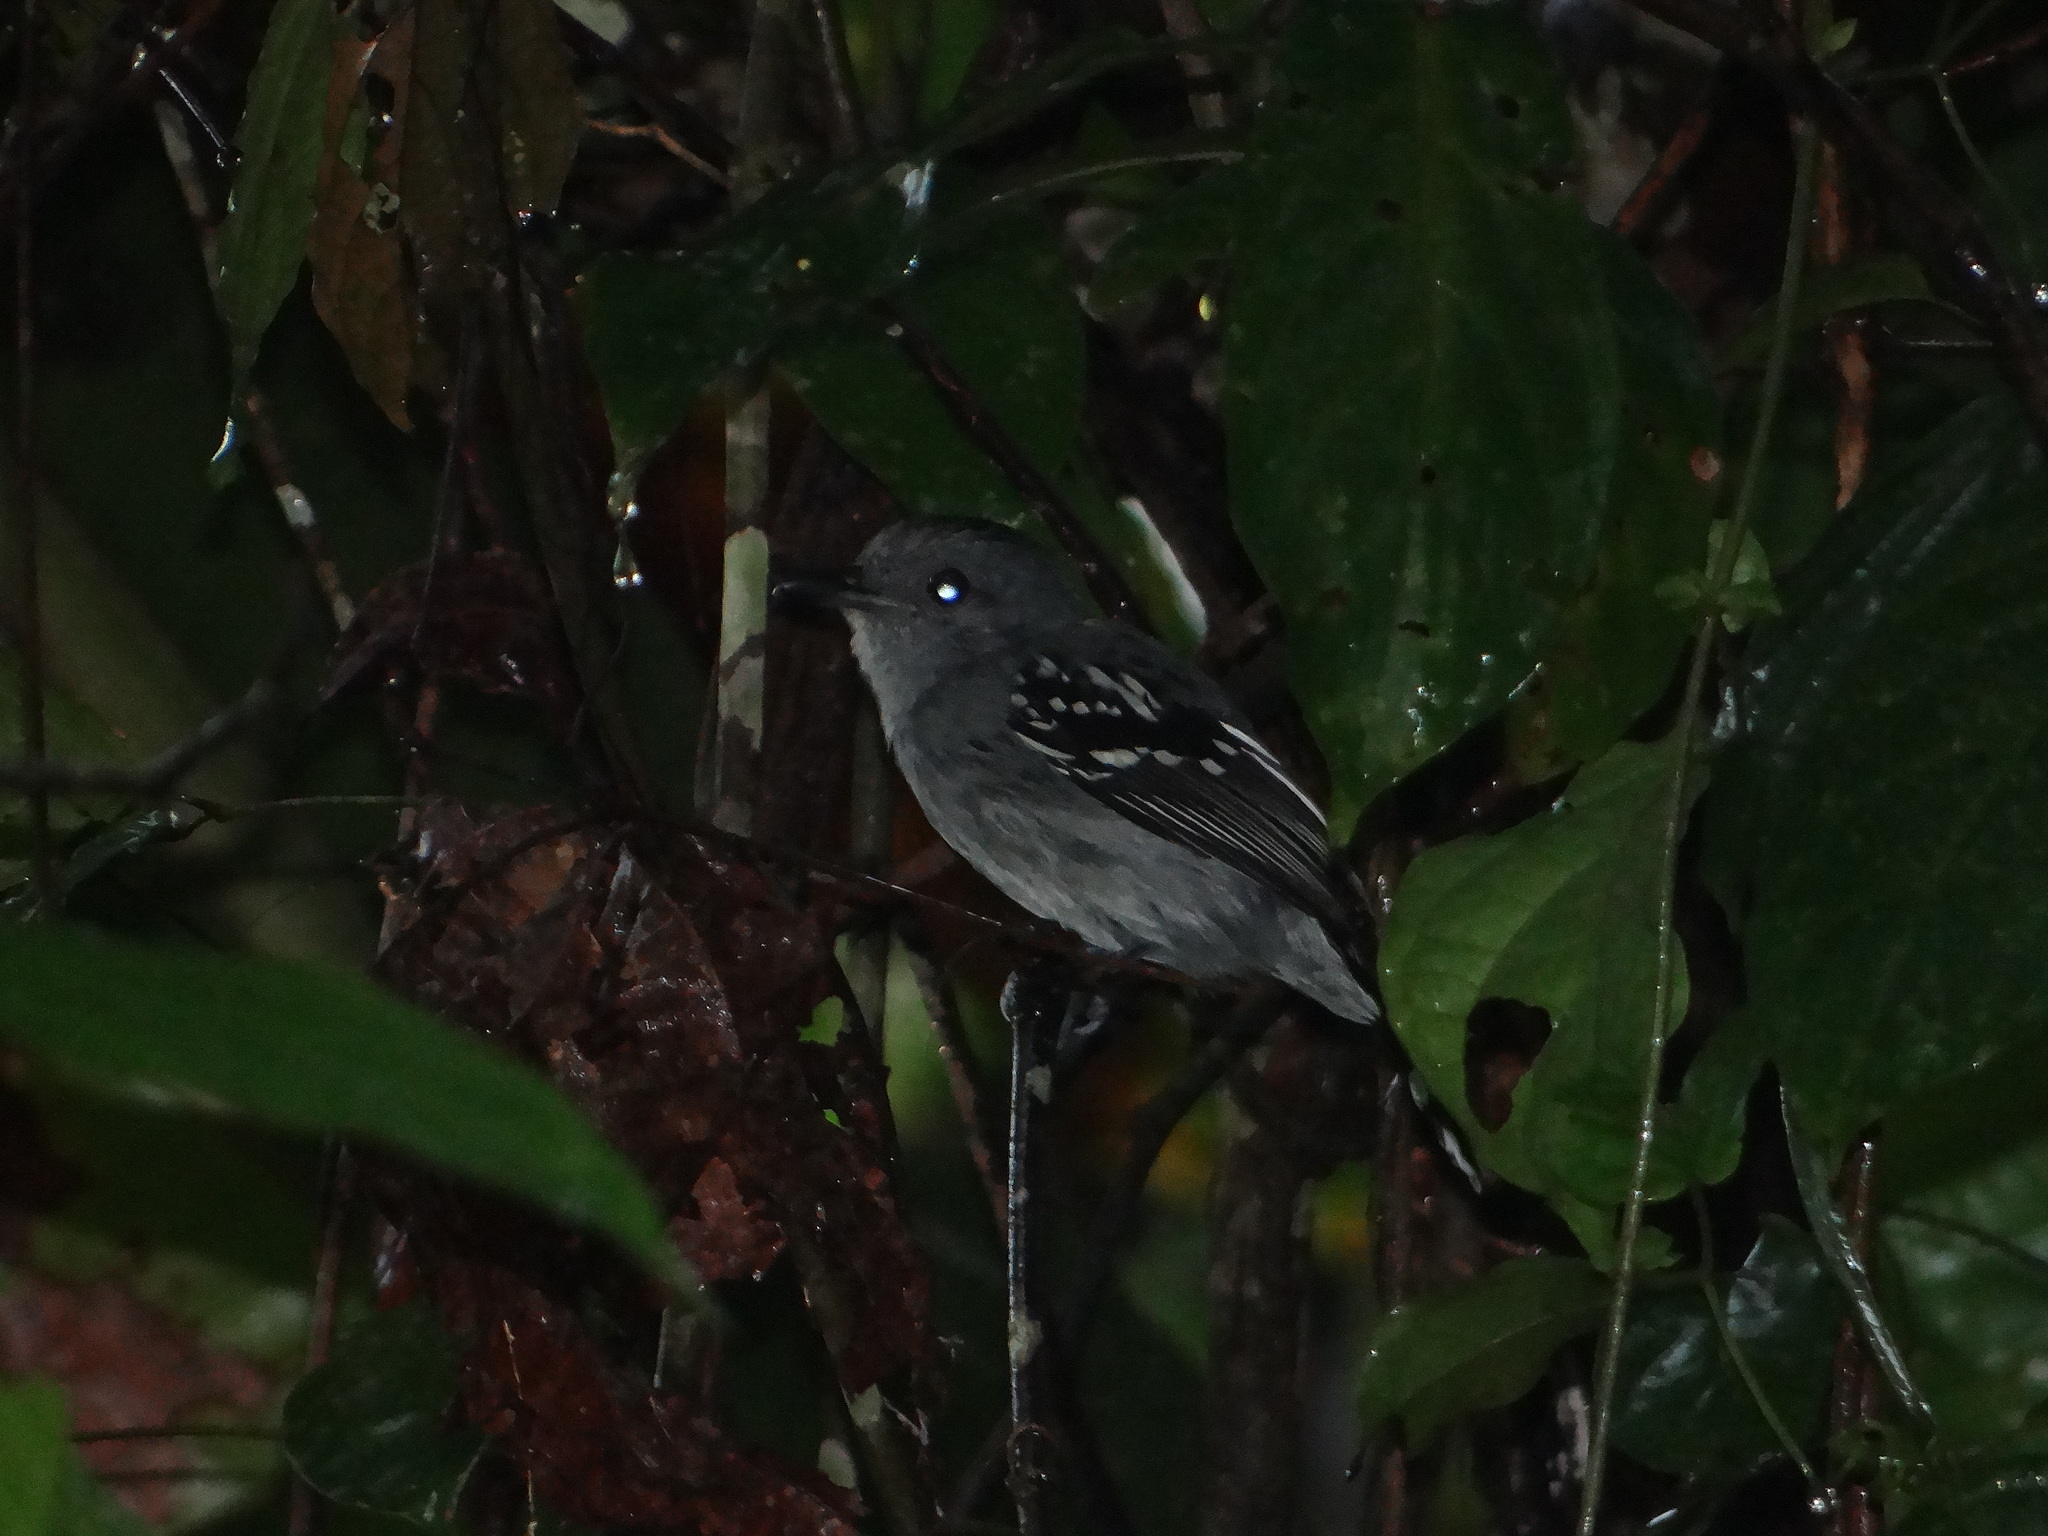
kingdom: Animalia
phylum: Chordata
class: Aves
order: Passeriformes
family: Thamnophilidae
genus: Thamnophilus
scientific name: Thamnophilus stictocephalus
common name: Natterer's slaty antshrike
